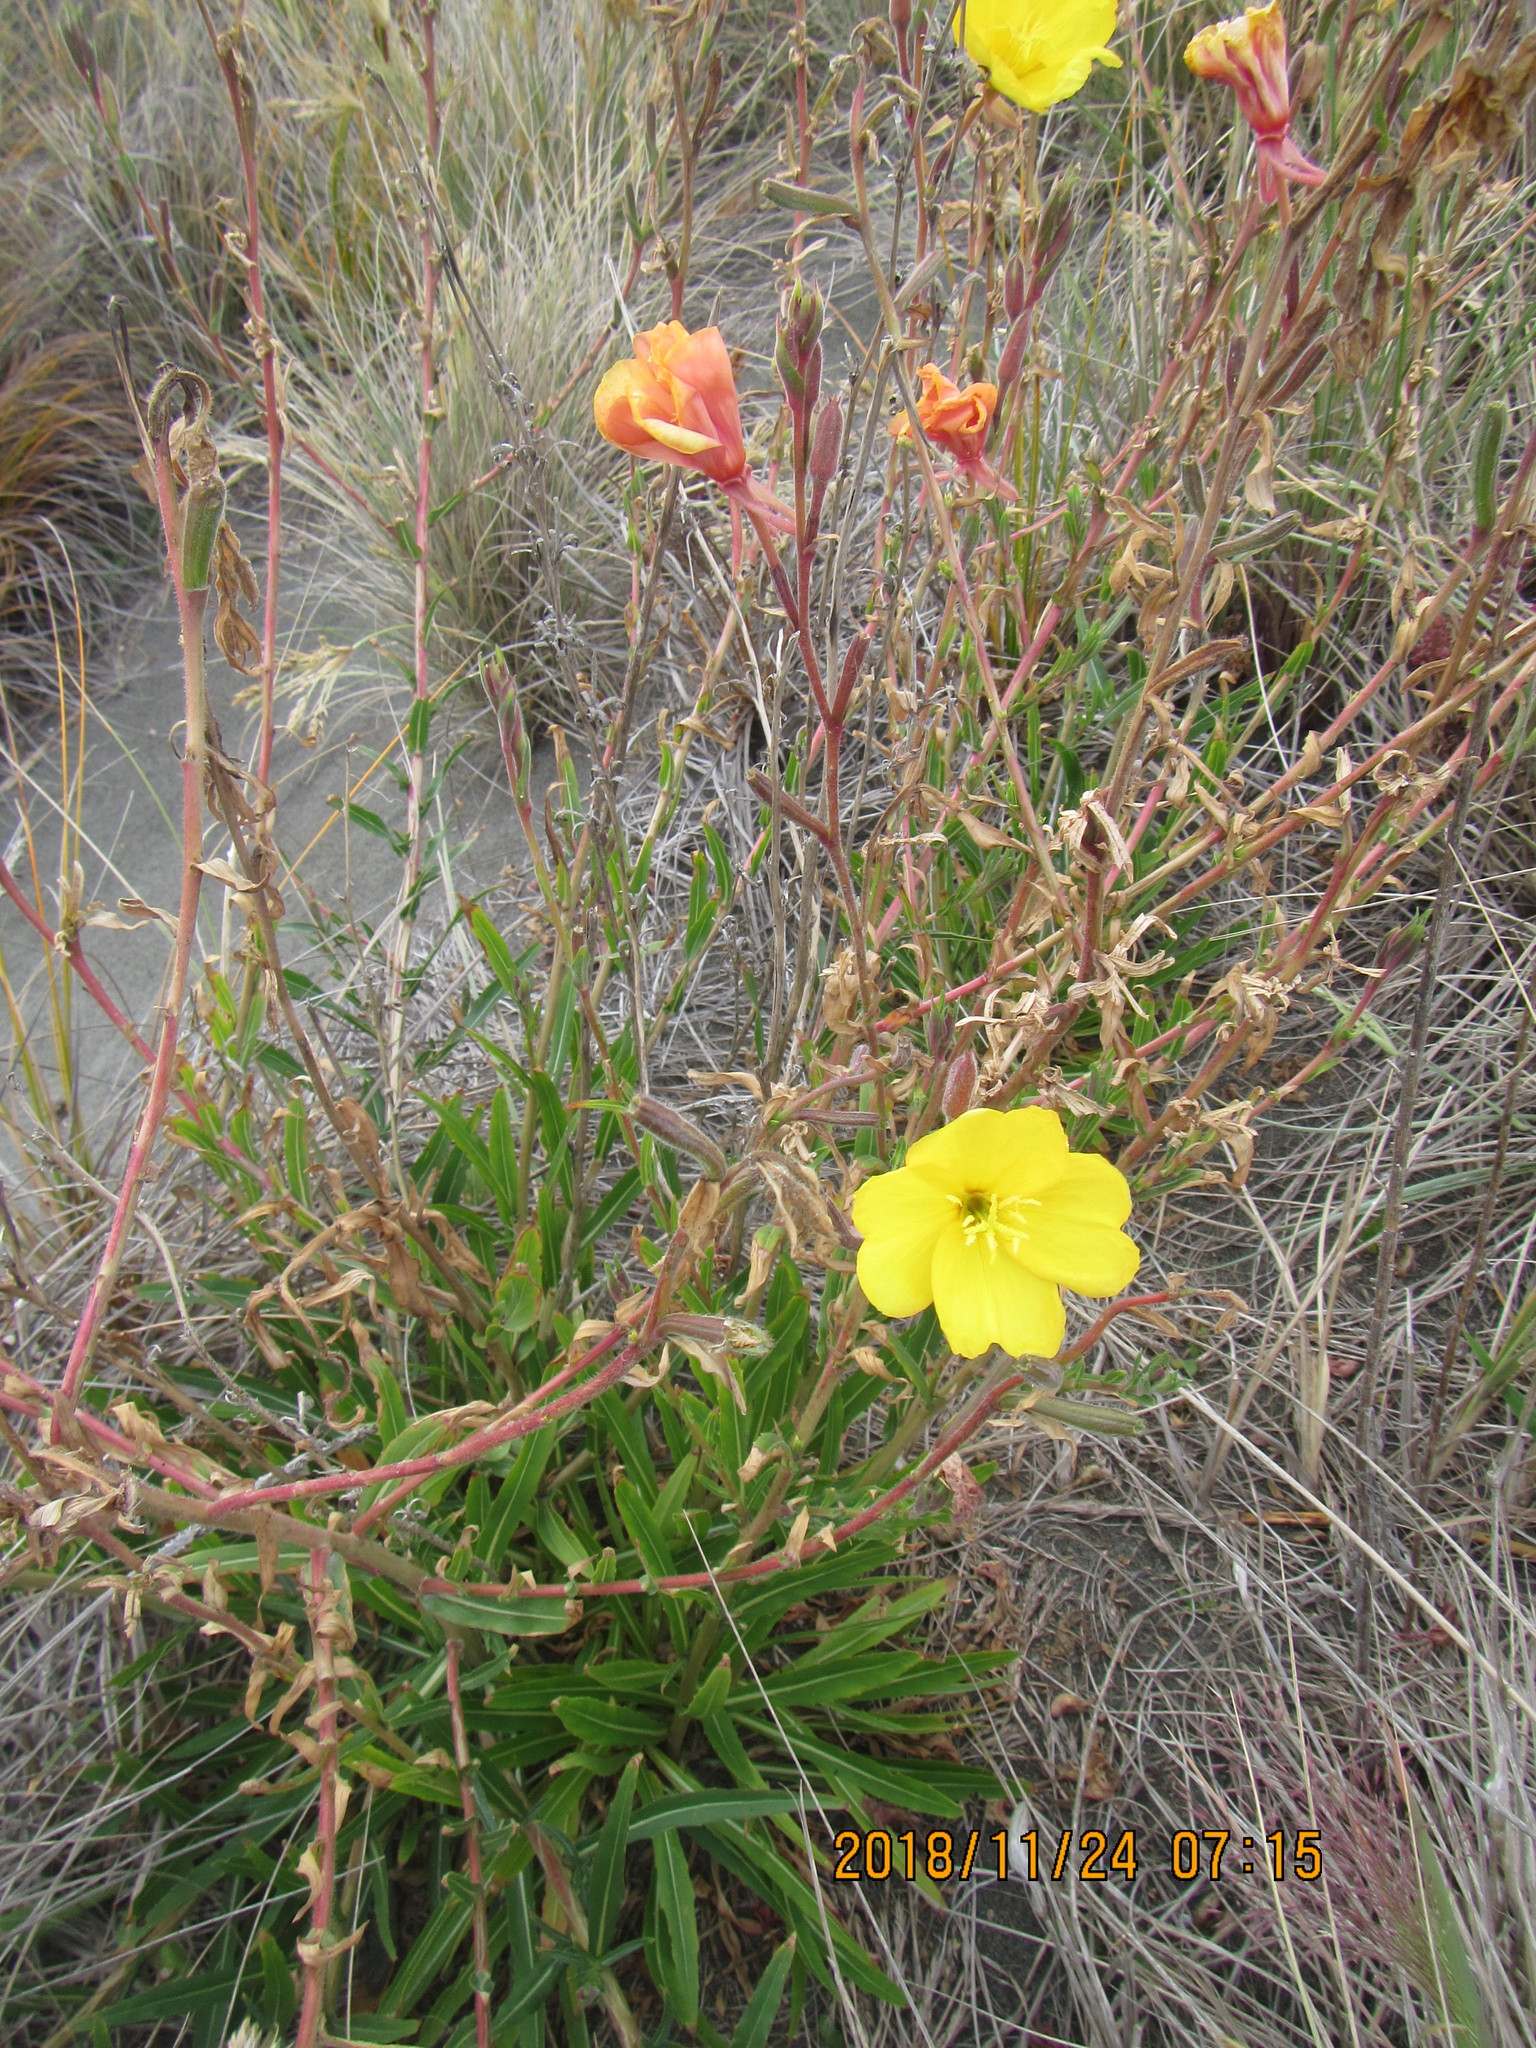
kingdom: Plantae
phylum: Tracheophyta
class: Magnoliopsida
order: Myrtales
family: Onagraceae
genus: Oenothera
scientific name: Oenothera stricta
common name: Fragrant evening-primrose
